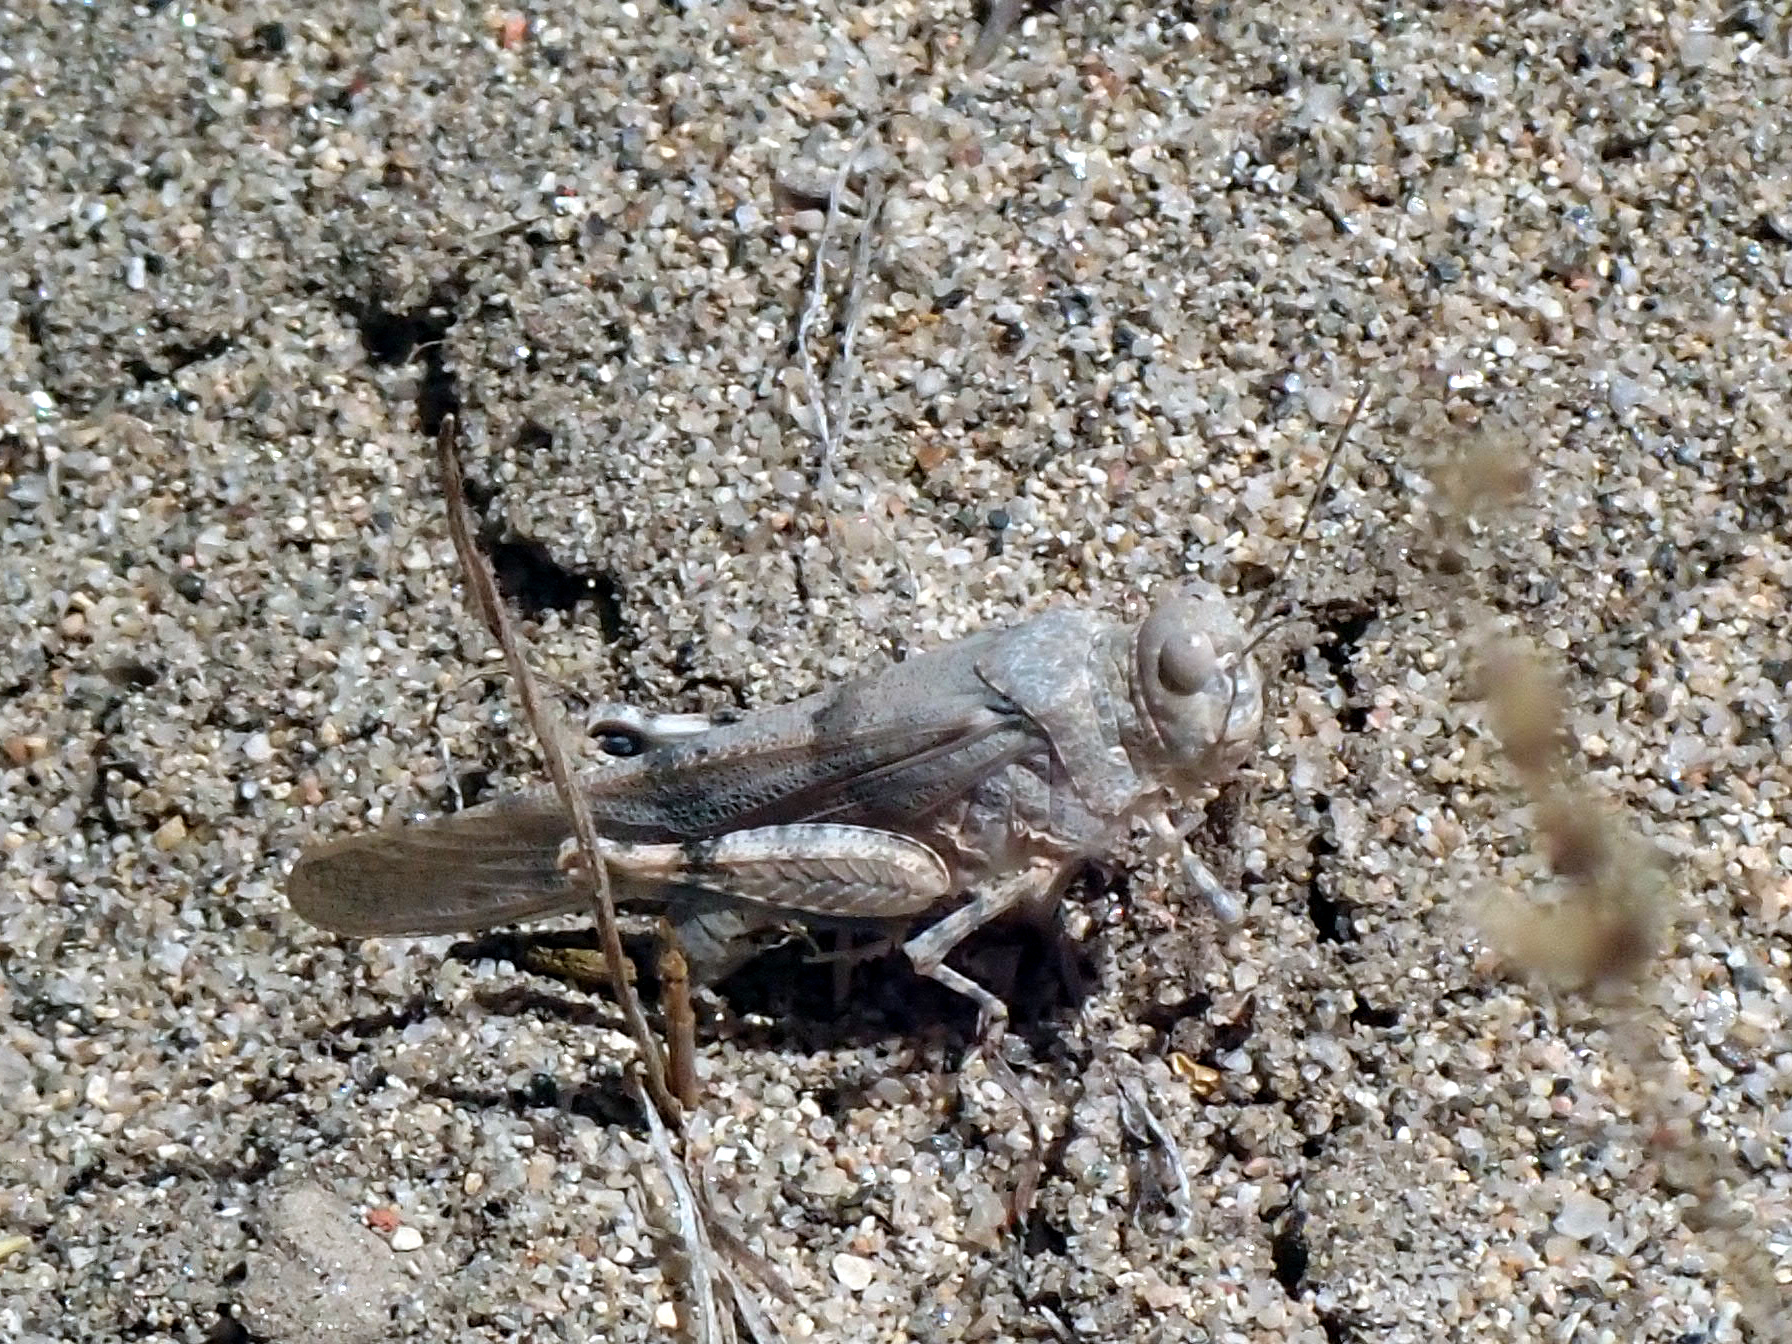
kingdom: Animalia
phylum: Arthropoda
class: Insecta
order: Orthoptera
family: Acrididae
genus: Sphingonotus
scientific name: Sphingonotus caerulans
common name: Blue-winged locust
